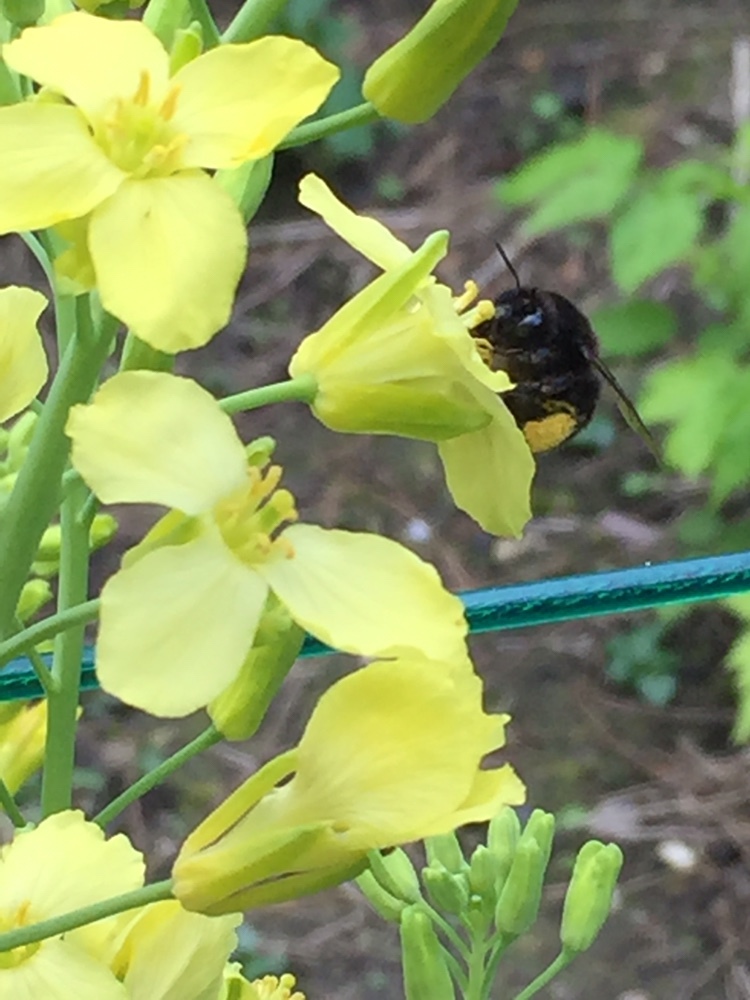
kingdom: Animalia
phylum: Arthropoda
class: Insecta
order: Hymenoptera
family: Apidae
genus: Anthophora
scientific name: Anthophora plumipes
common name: Hairy-footed flower bee
